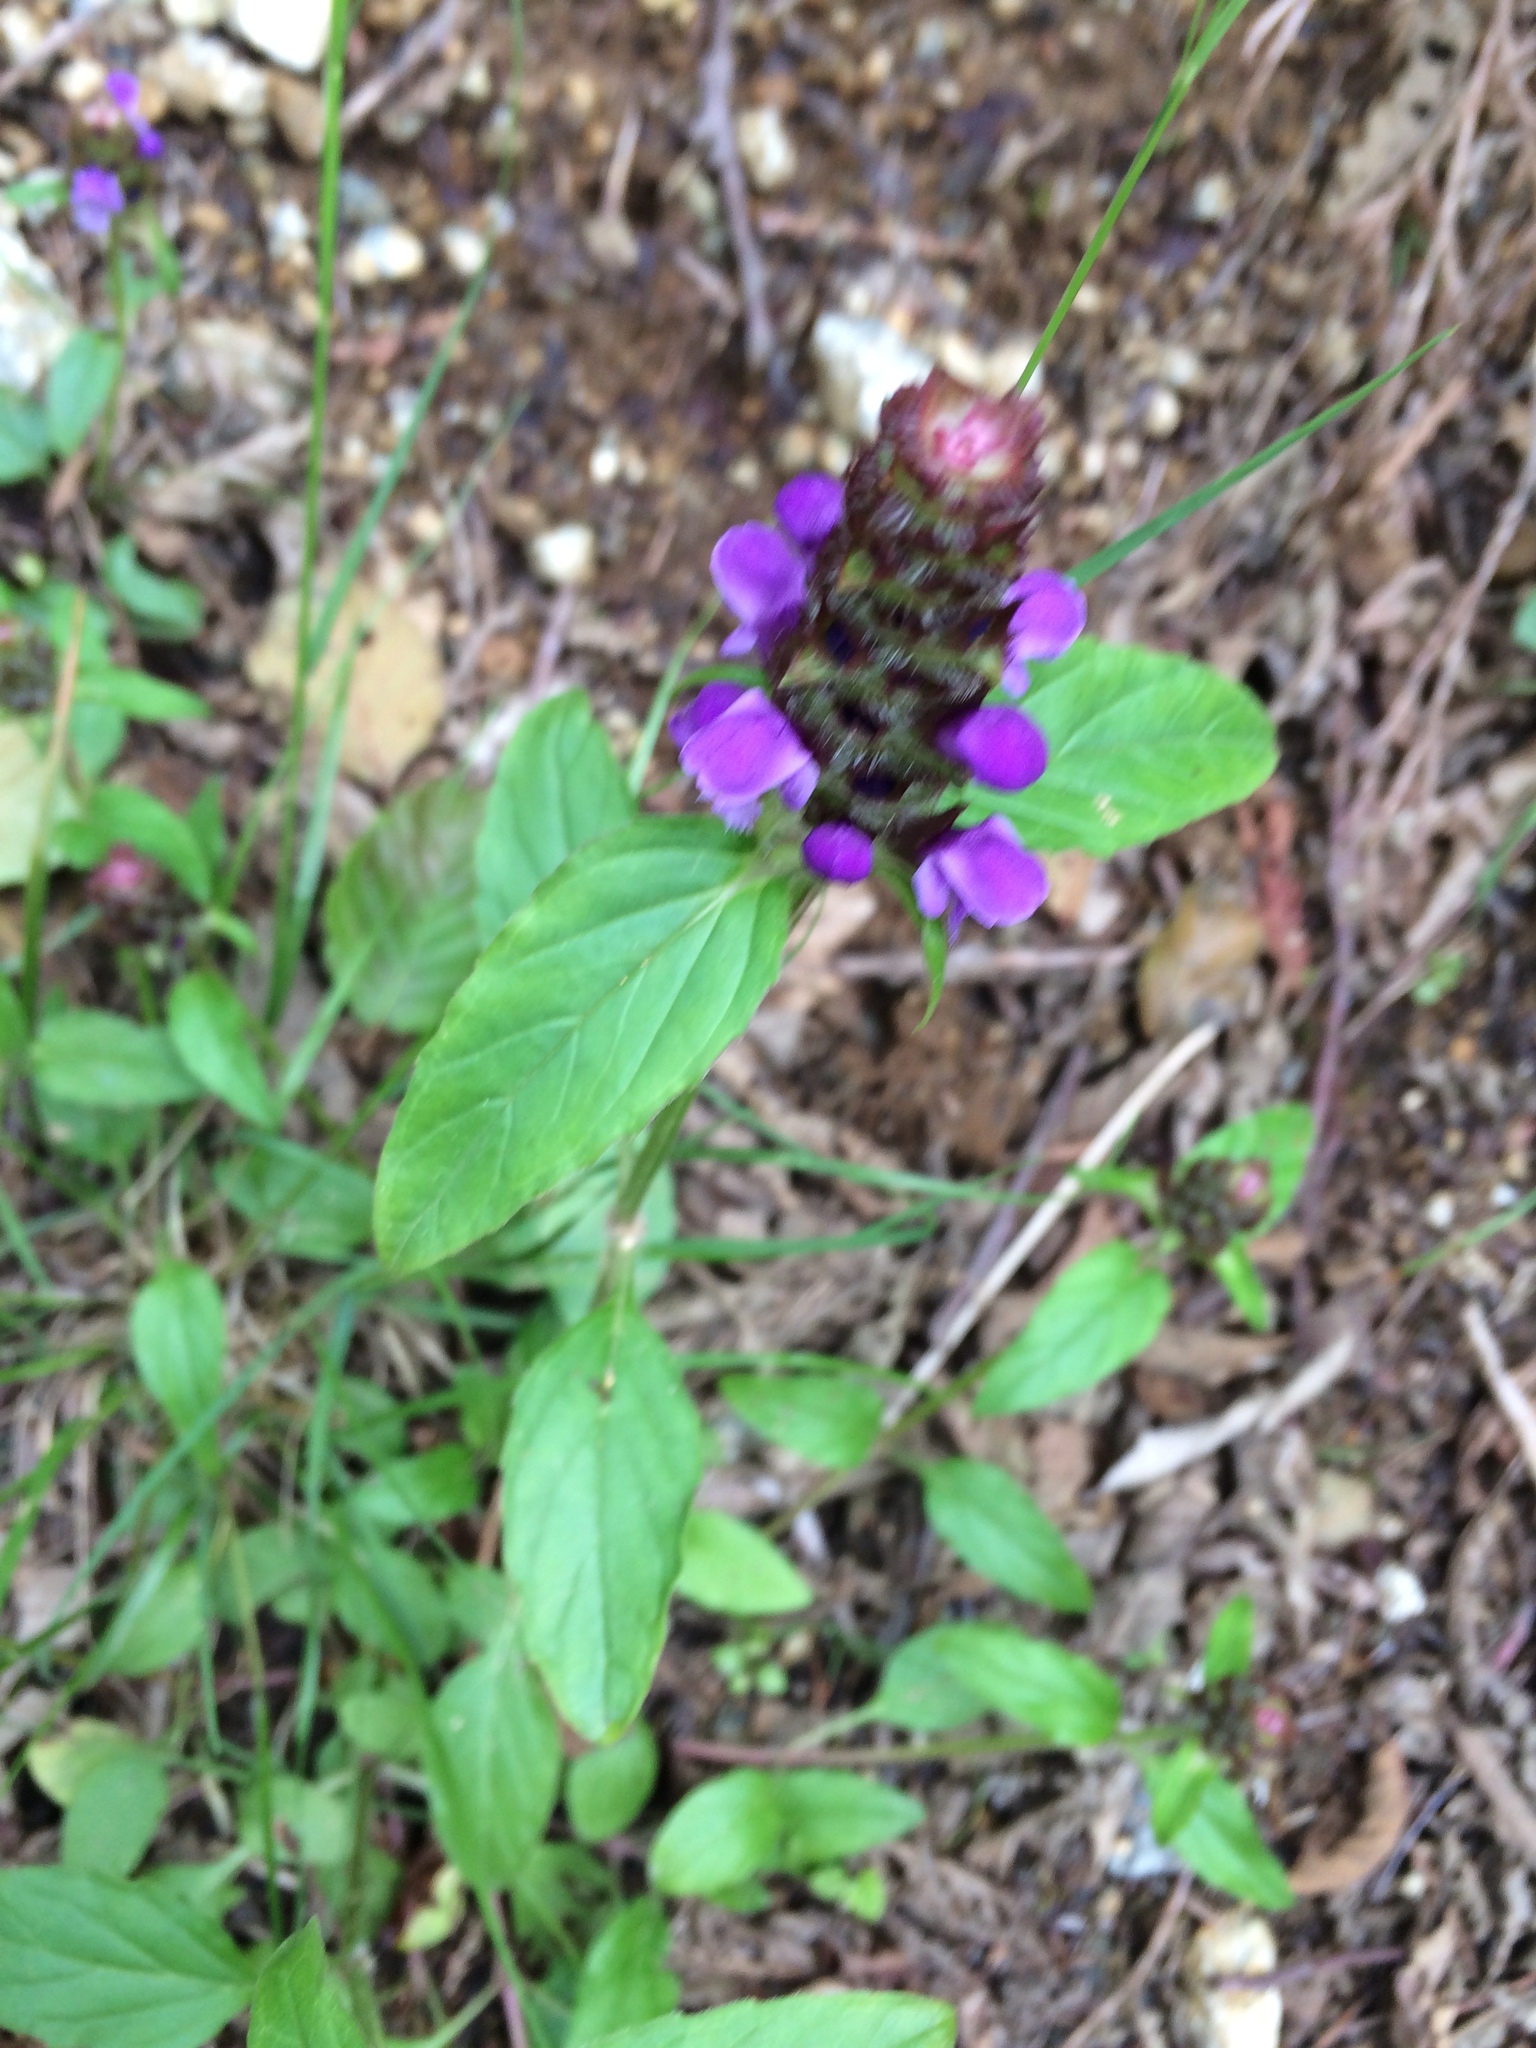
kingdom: Plantae
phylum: Tracheophyta
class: Magnoliopsida
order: Lamiales
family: Lamiaceae
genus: Prunella
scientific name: Prunella vulgaris
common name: Heal-all
